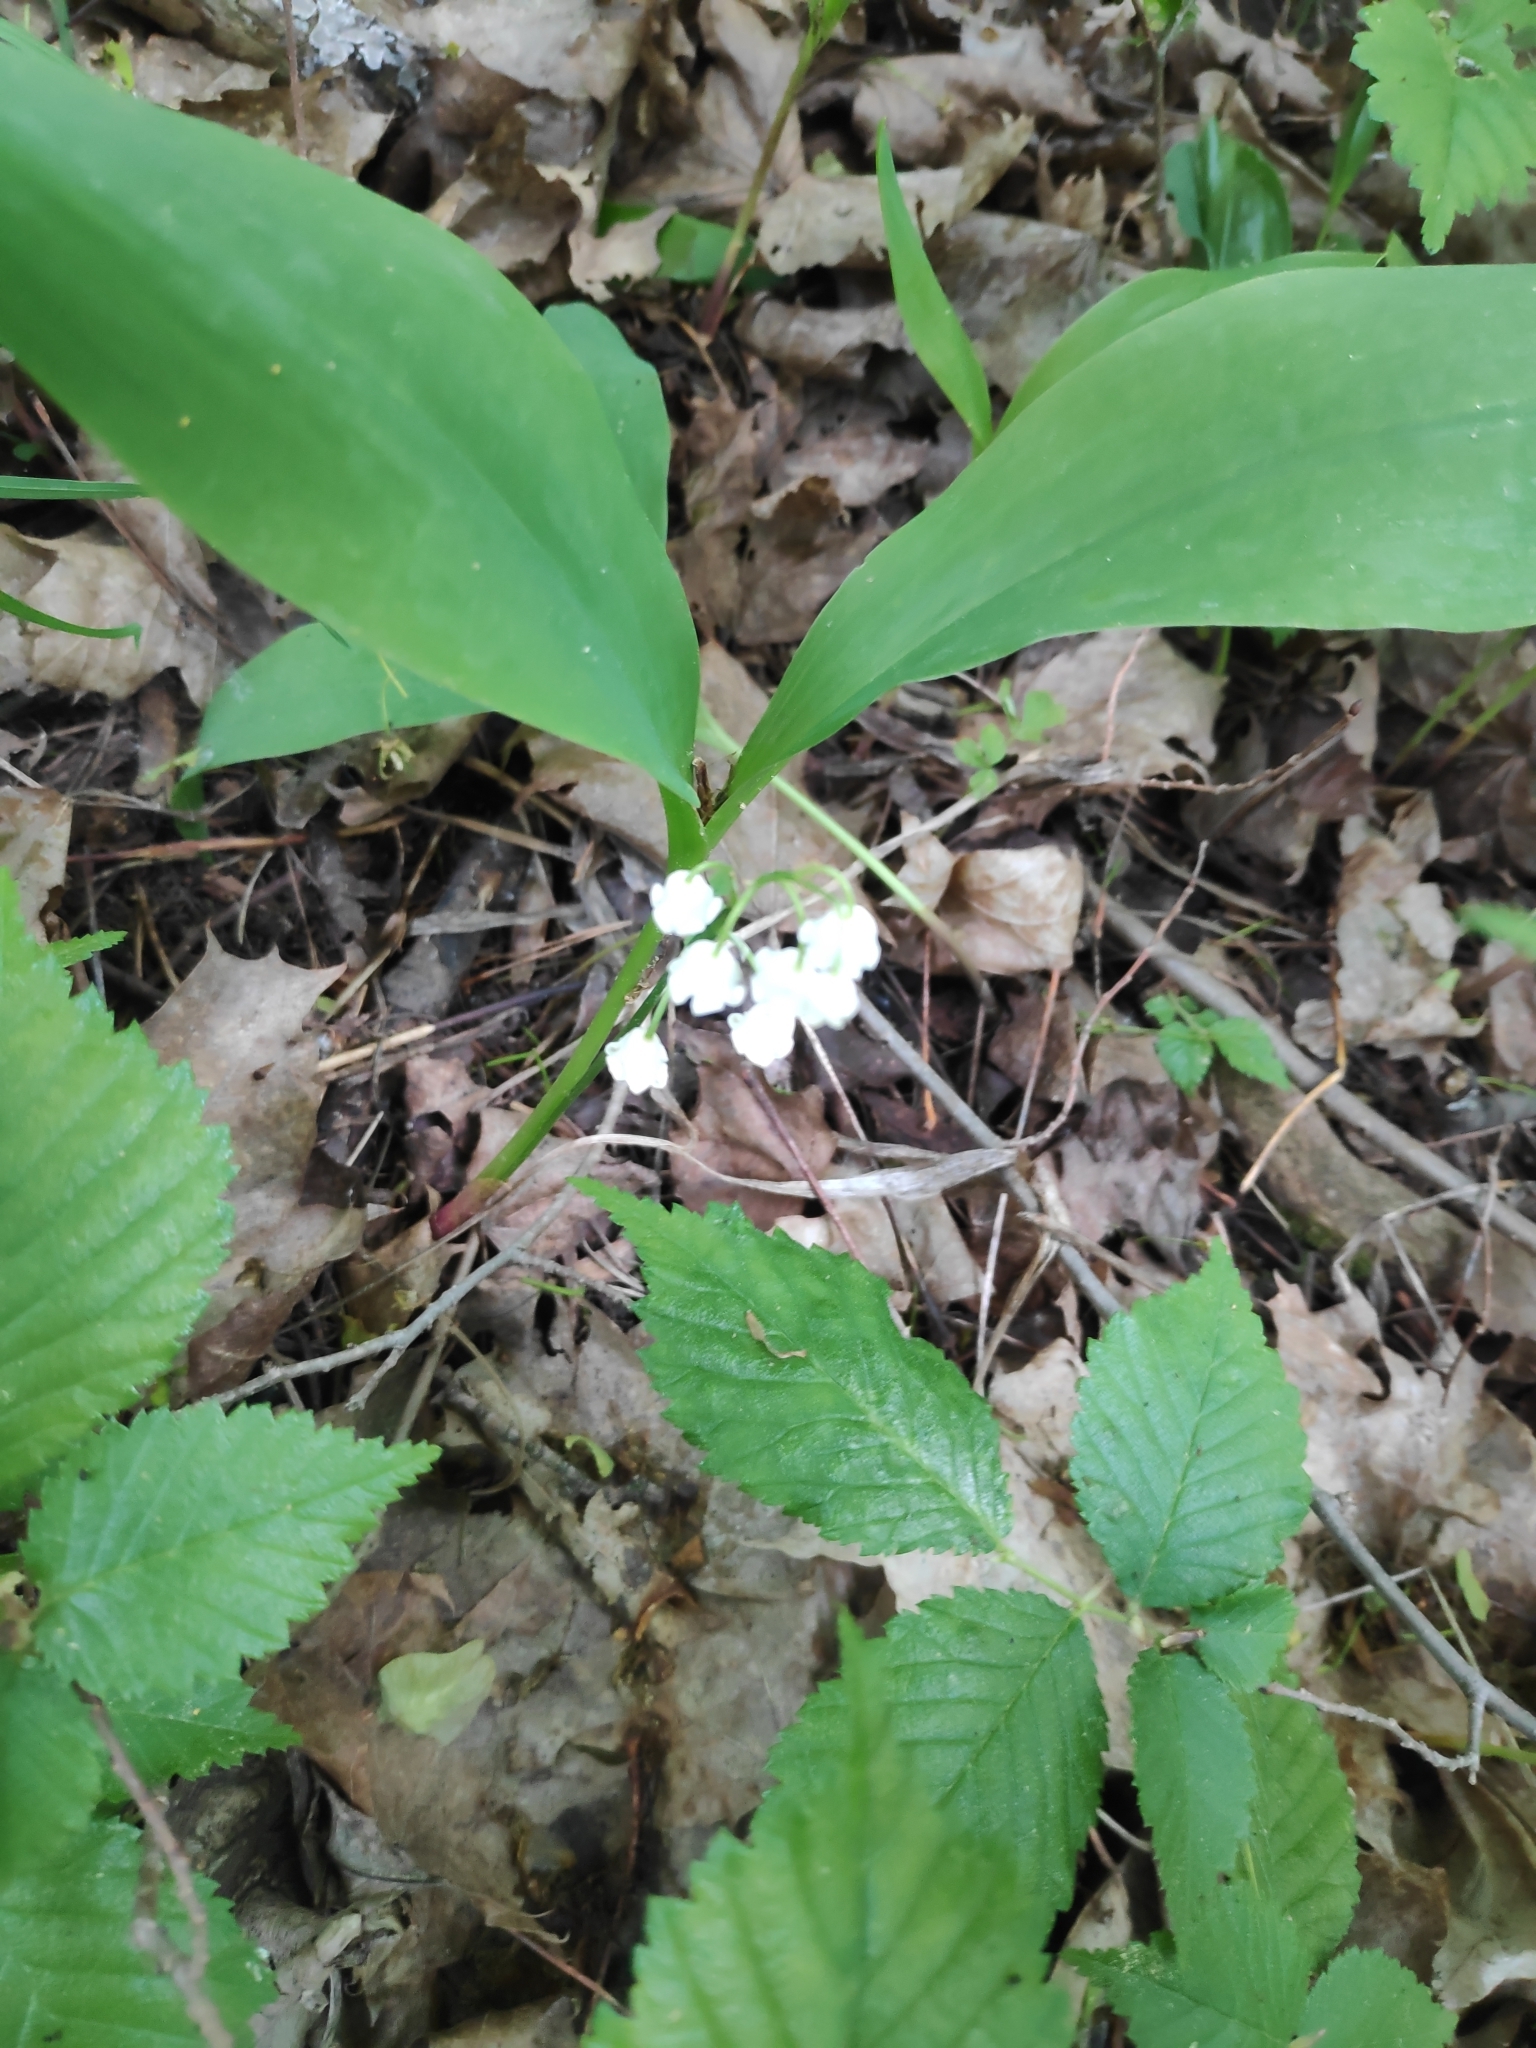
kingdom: Plantae
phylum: Tracheophyta
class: Liliopsida
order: Asparagales
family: Asparagaceae
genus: Convallaria
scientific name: Convallaria majalis
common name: Lily-of-the-valley
